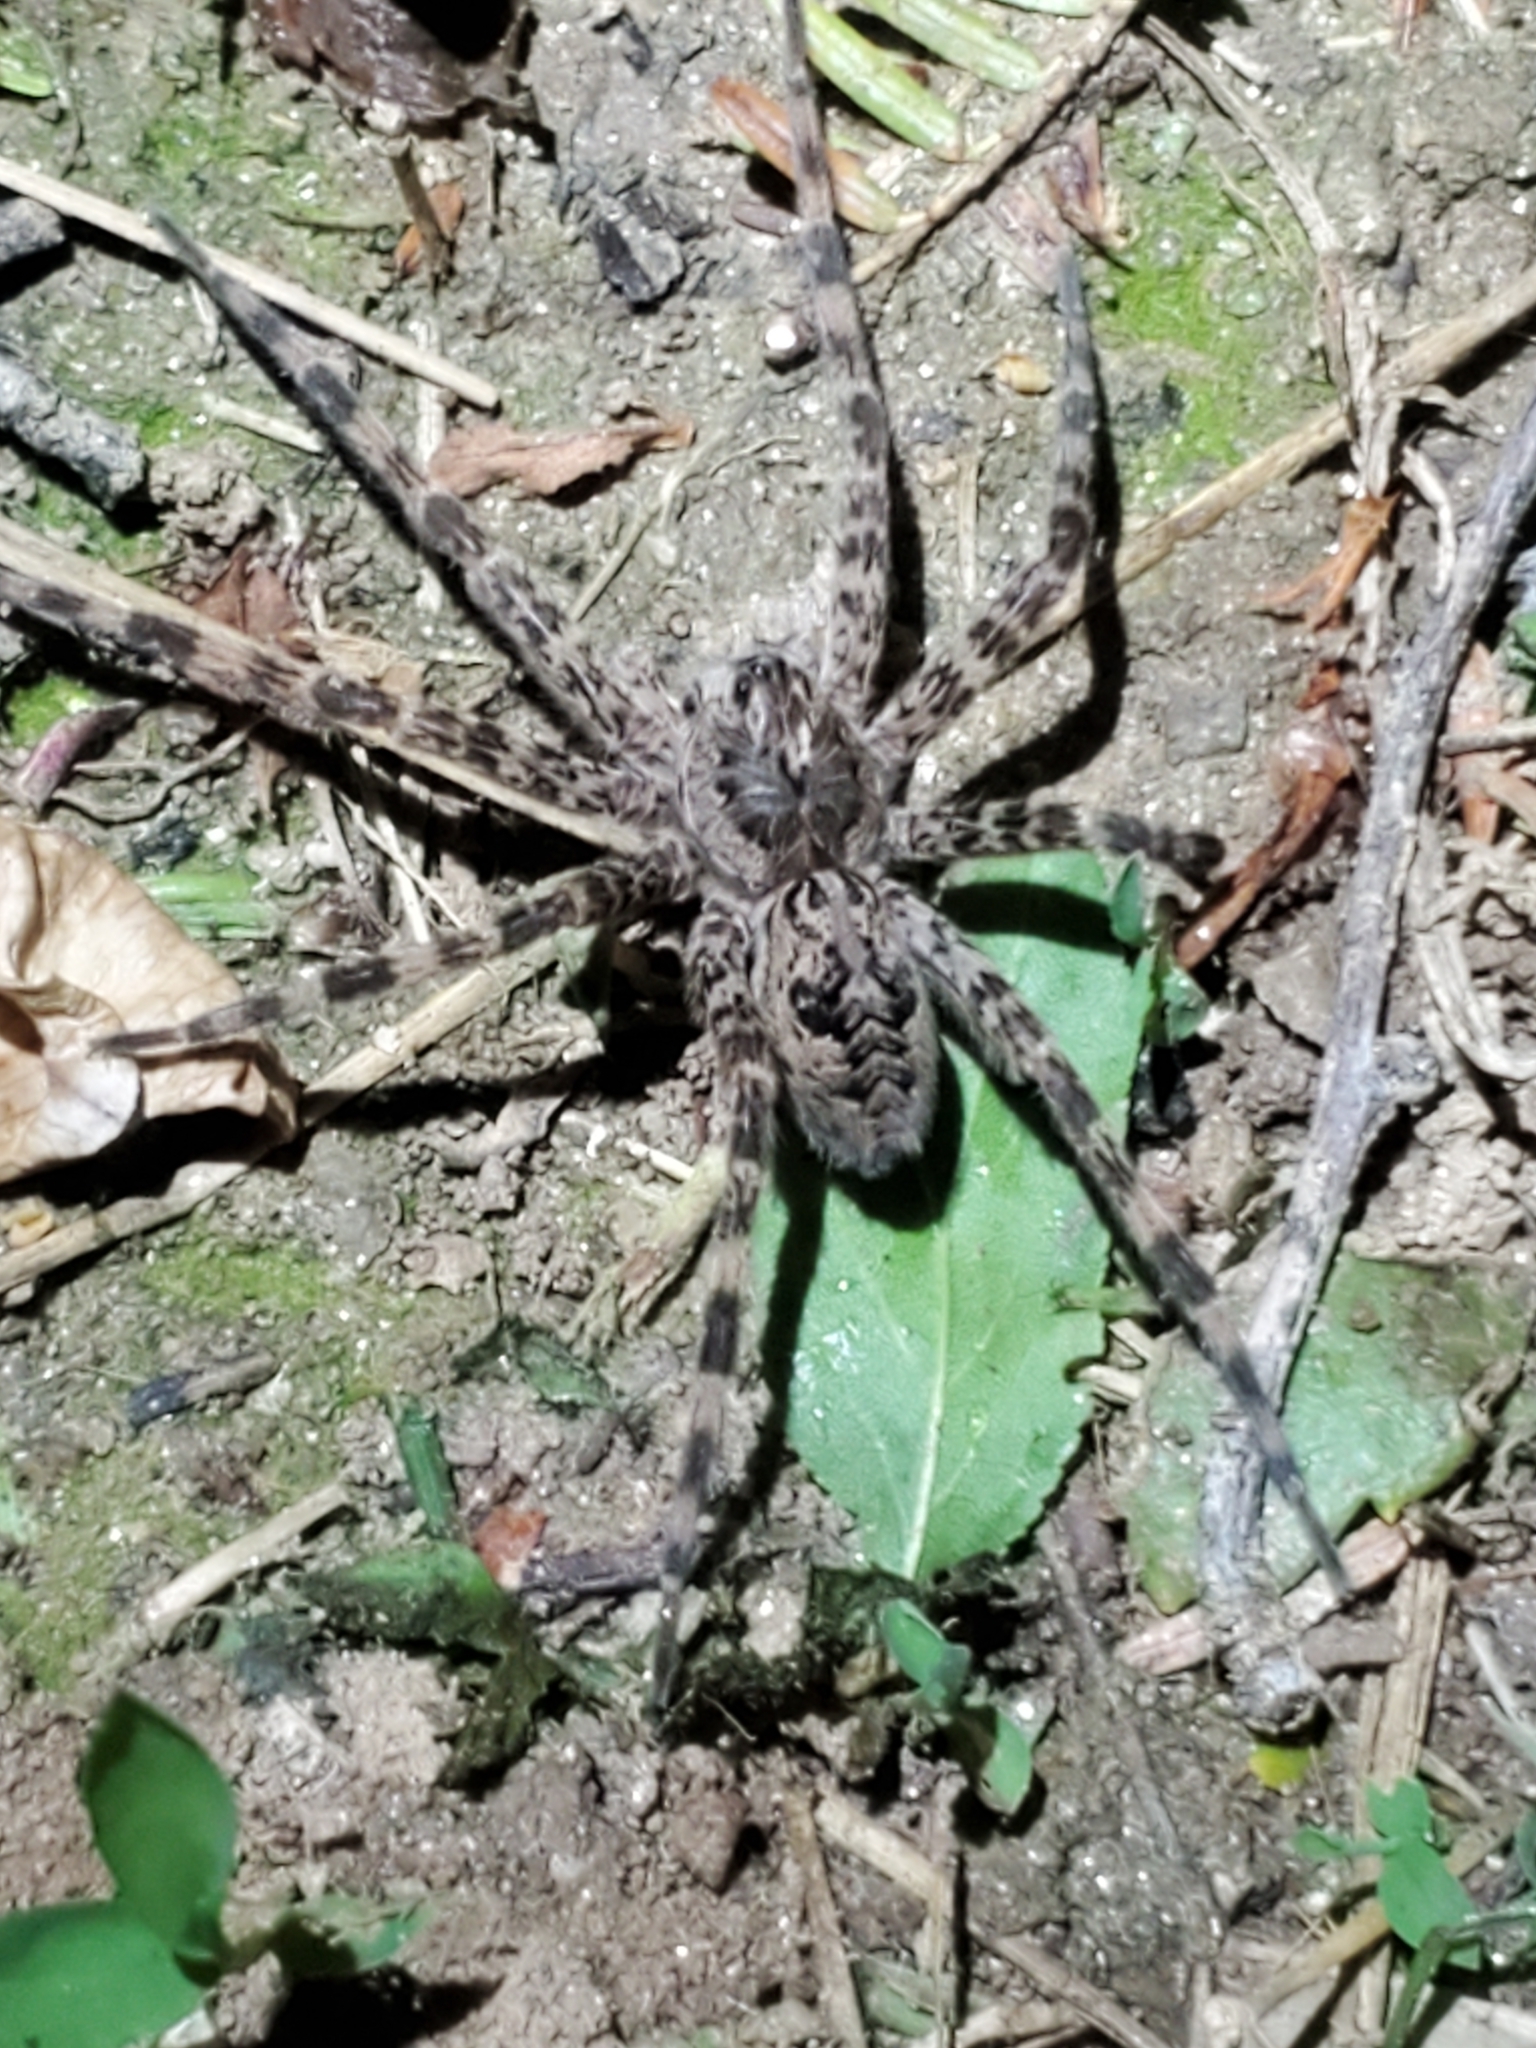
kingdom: Animalia
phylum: Arthropoda
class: Arachnida
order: Araneae
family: Pisauridae
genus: Dolomedes
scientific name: Dolomedes tenebrosus
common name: Dark fishing spider
